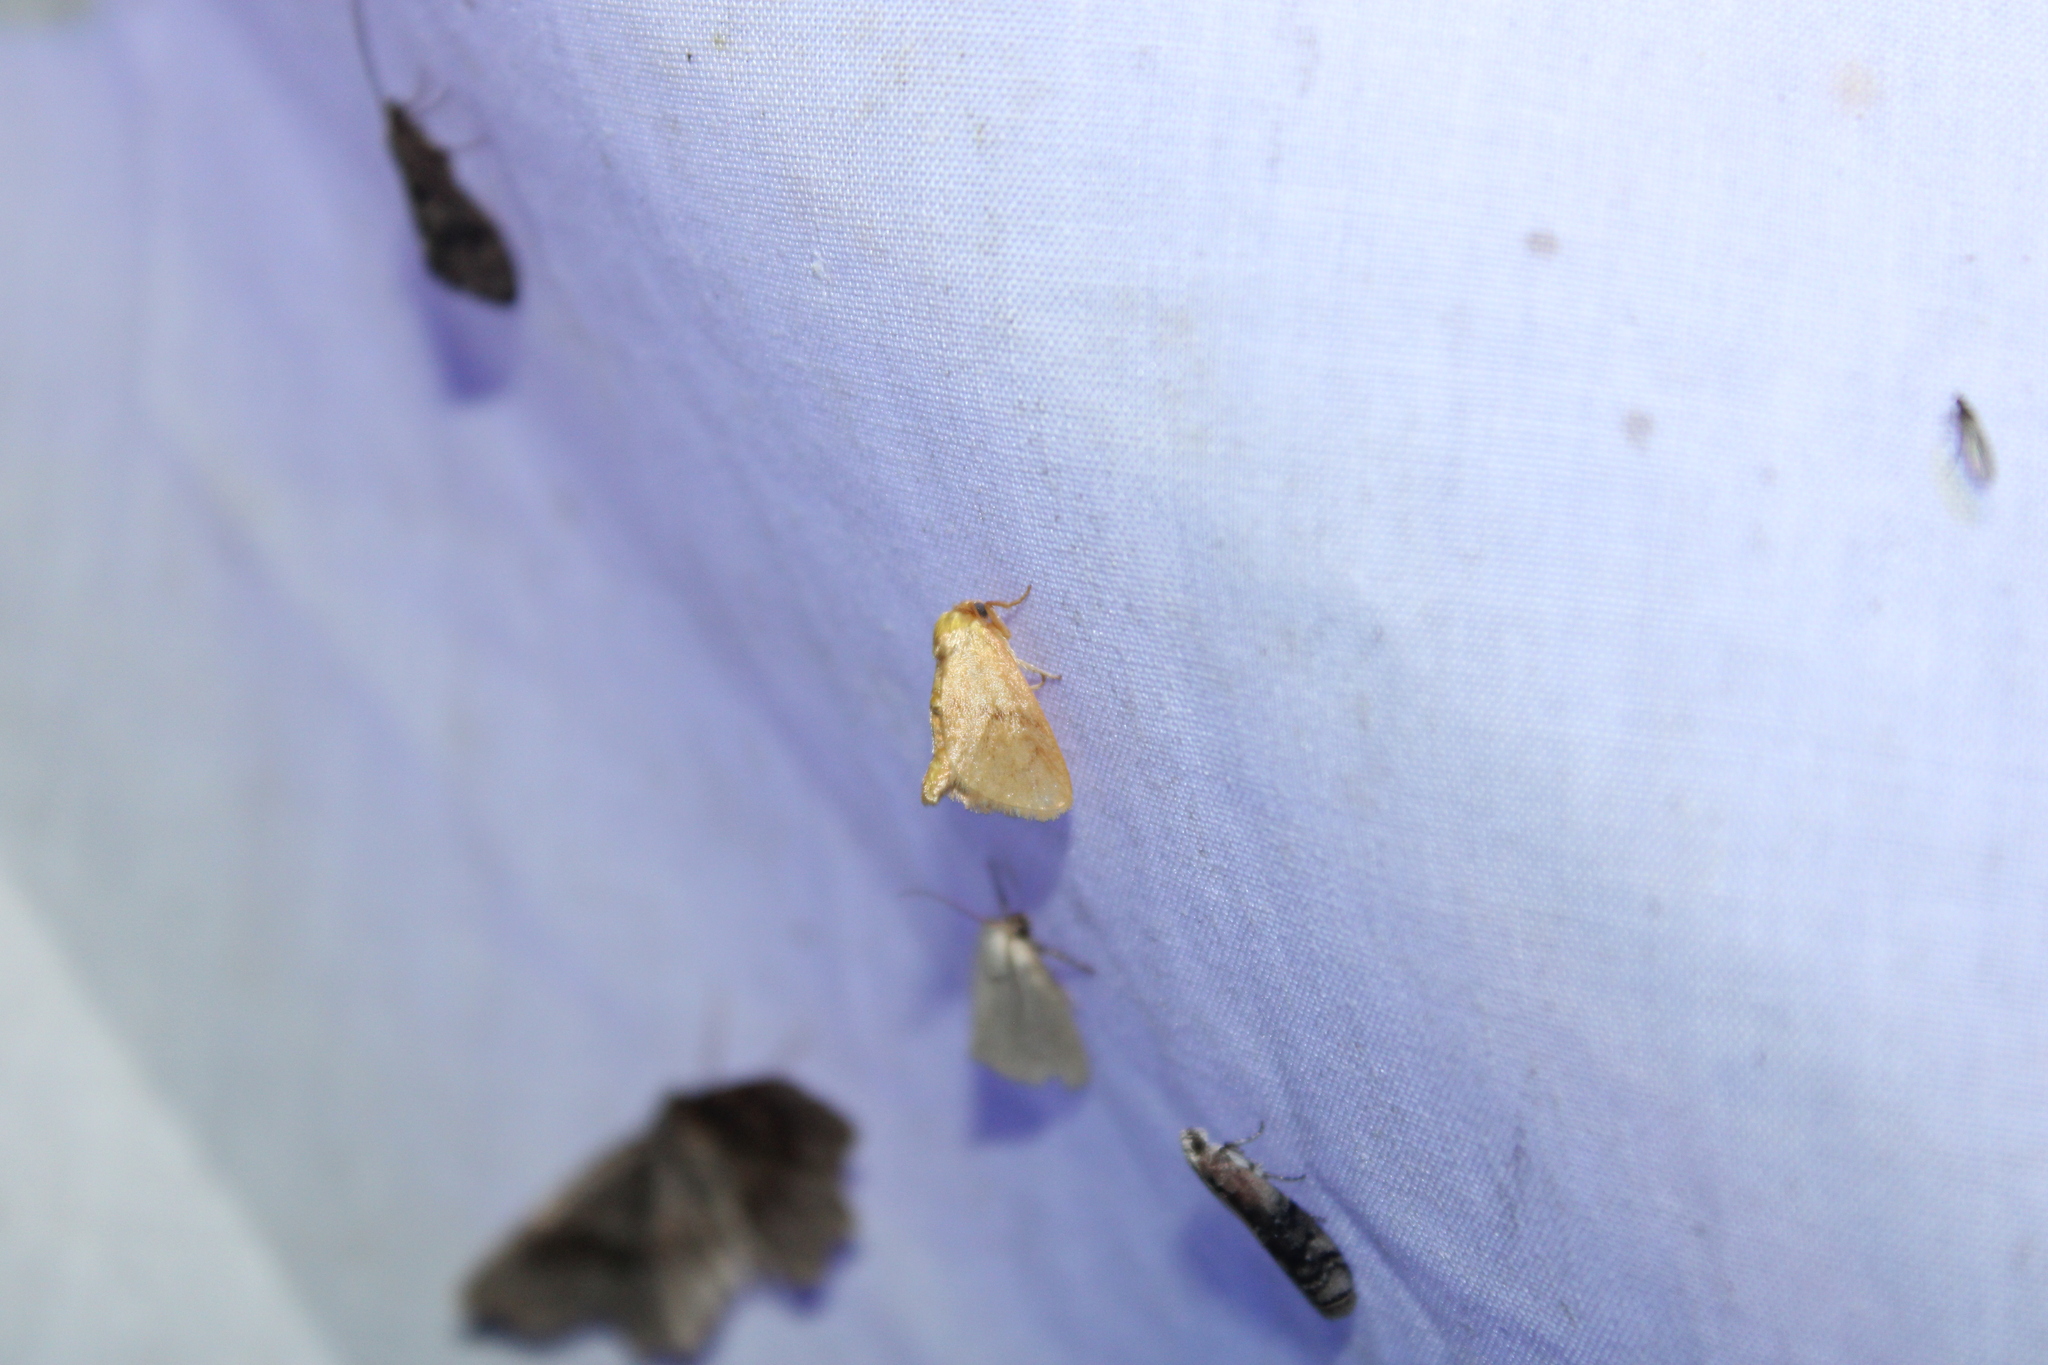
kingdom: Animalia
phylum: Arthropoda
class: Insecta
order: Lepidoptera
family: Limacodidae
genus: Tortricidia
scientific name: Tortricidia pallida
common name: Red-crossed button slug moth
